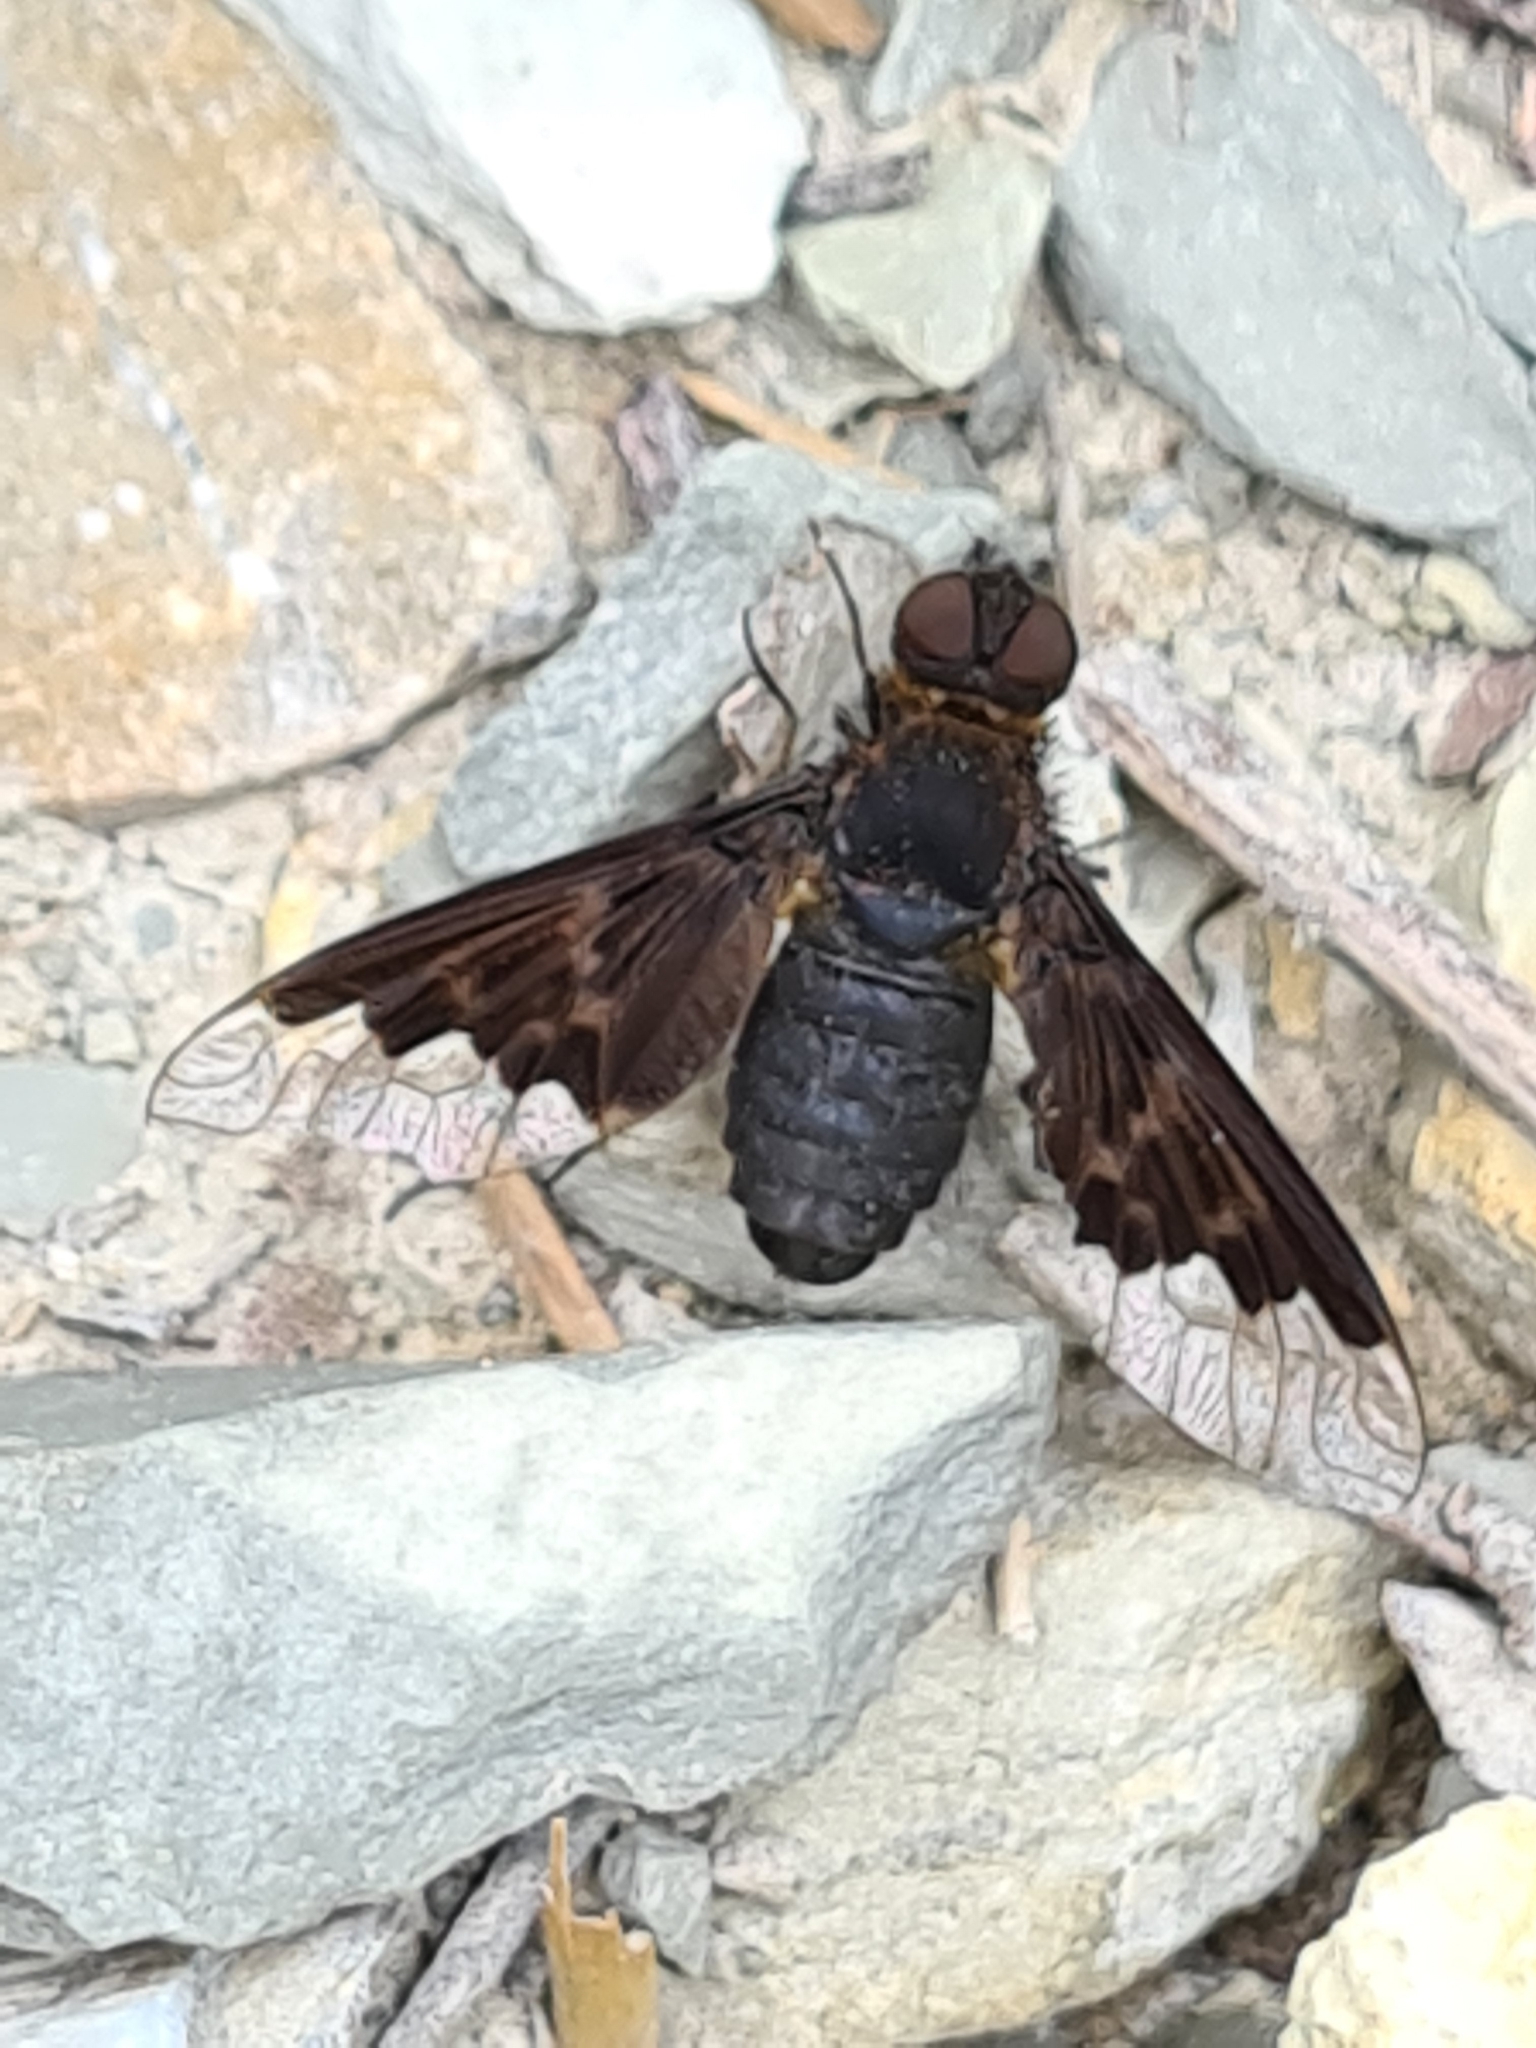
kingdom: Animalia
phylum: Arthropoda
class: Insecta
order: Diptera
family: Bombyliidae
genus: Hemipenthes
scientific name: Hemipenthes morio
